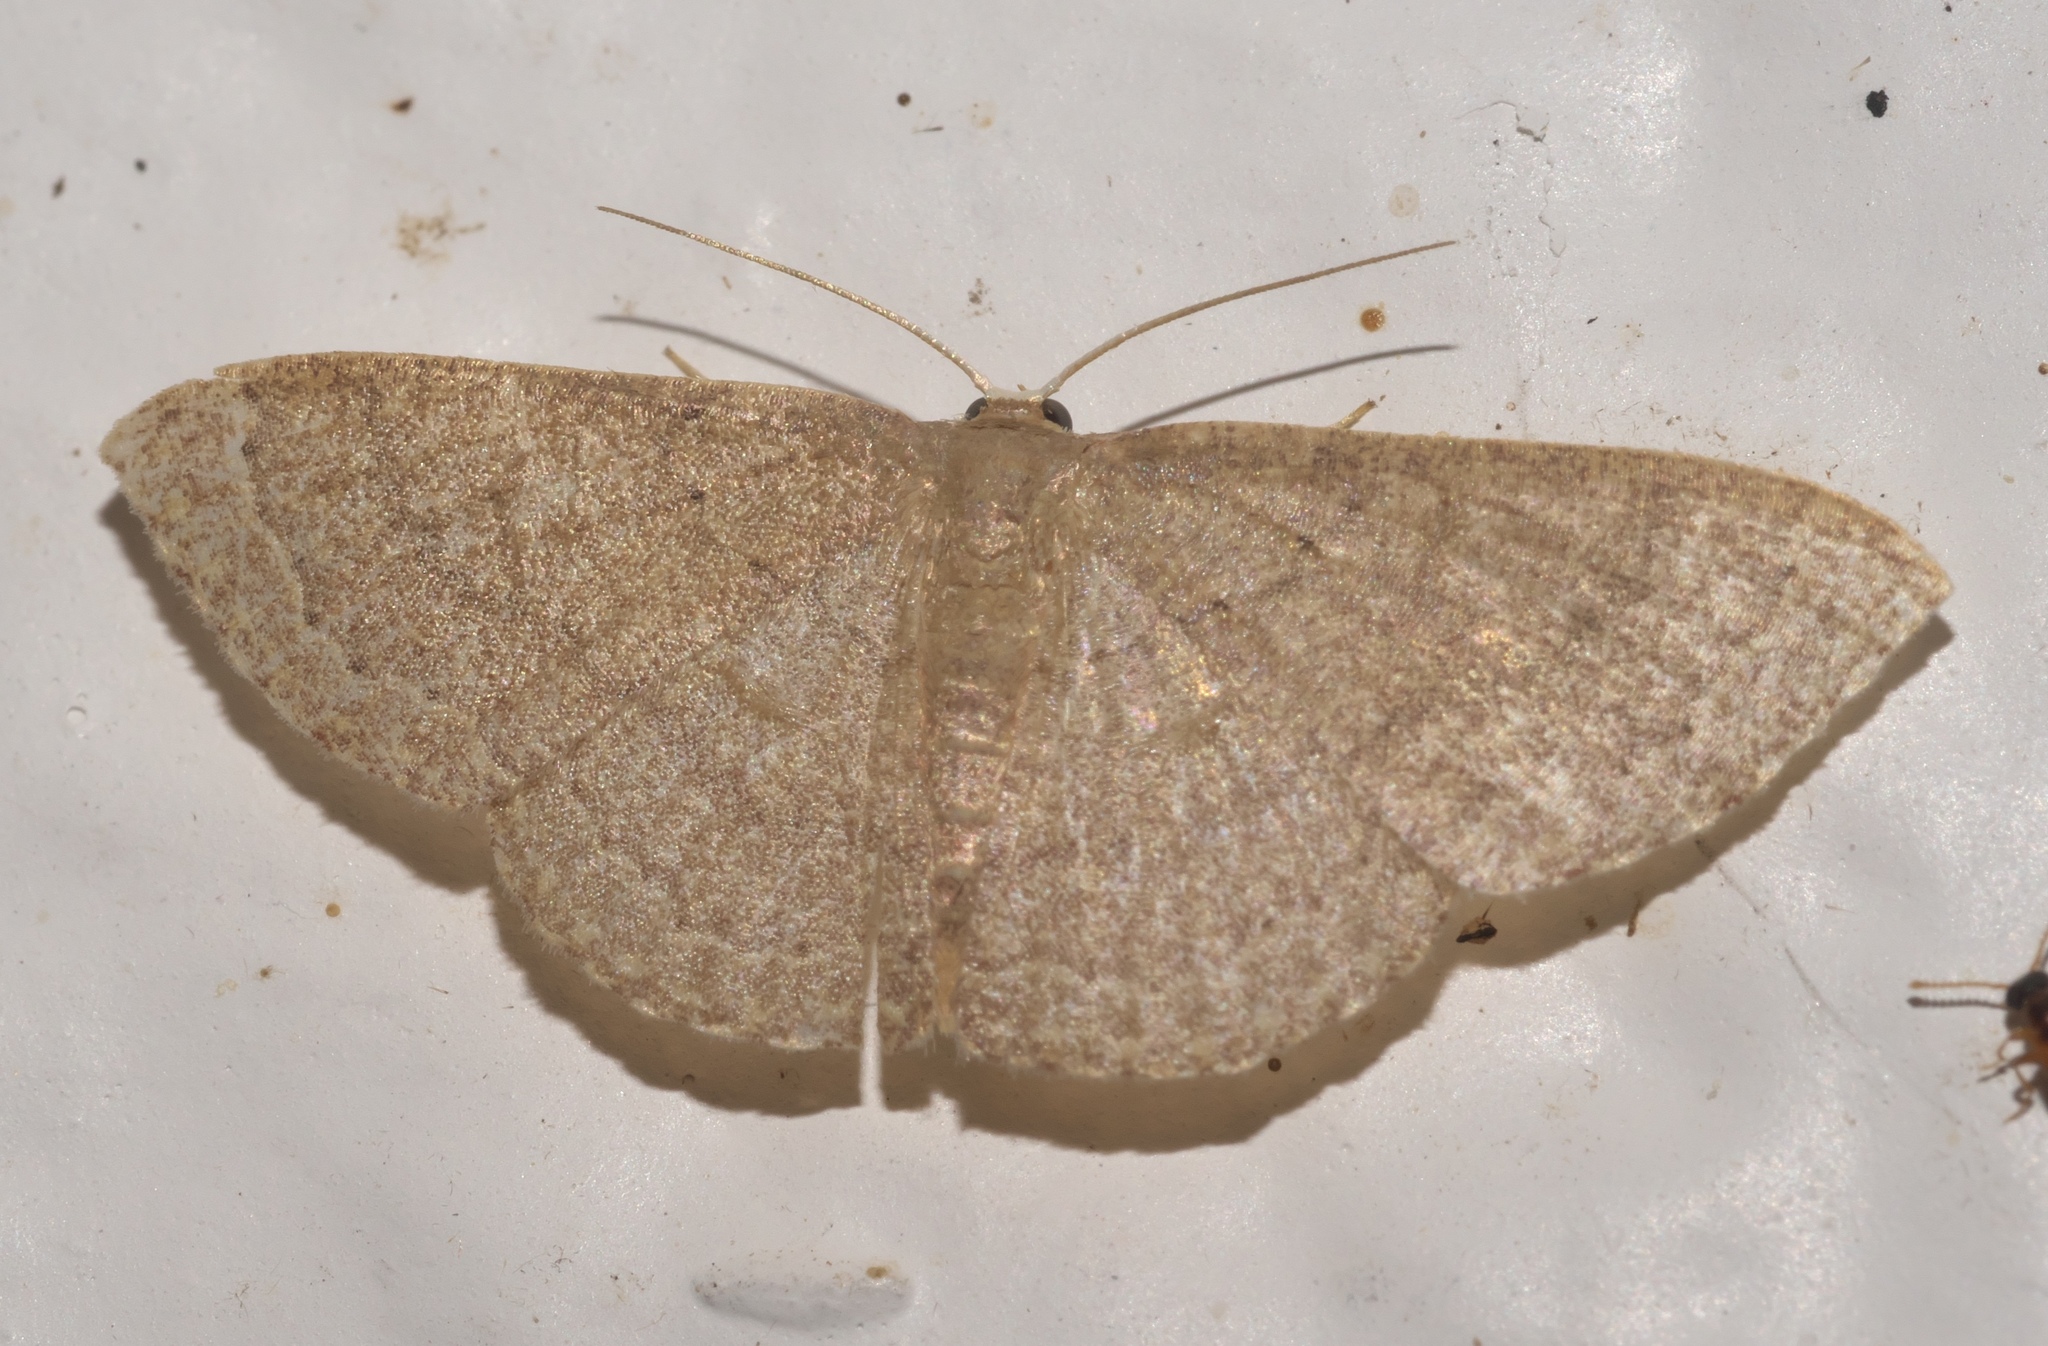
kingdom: Animalia
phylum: Arthropoda
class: Insecta
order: Lepidoptera
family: Geometridae
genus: Pleuroprucha
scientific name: Pleuroprucha insulsaria
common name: Common tan wave
